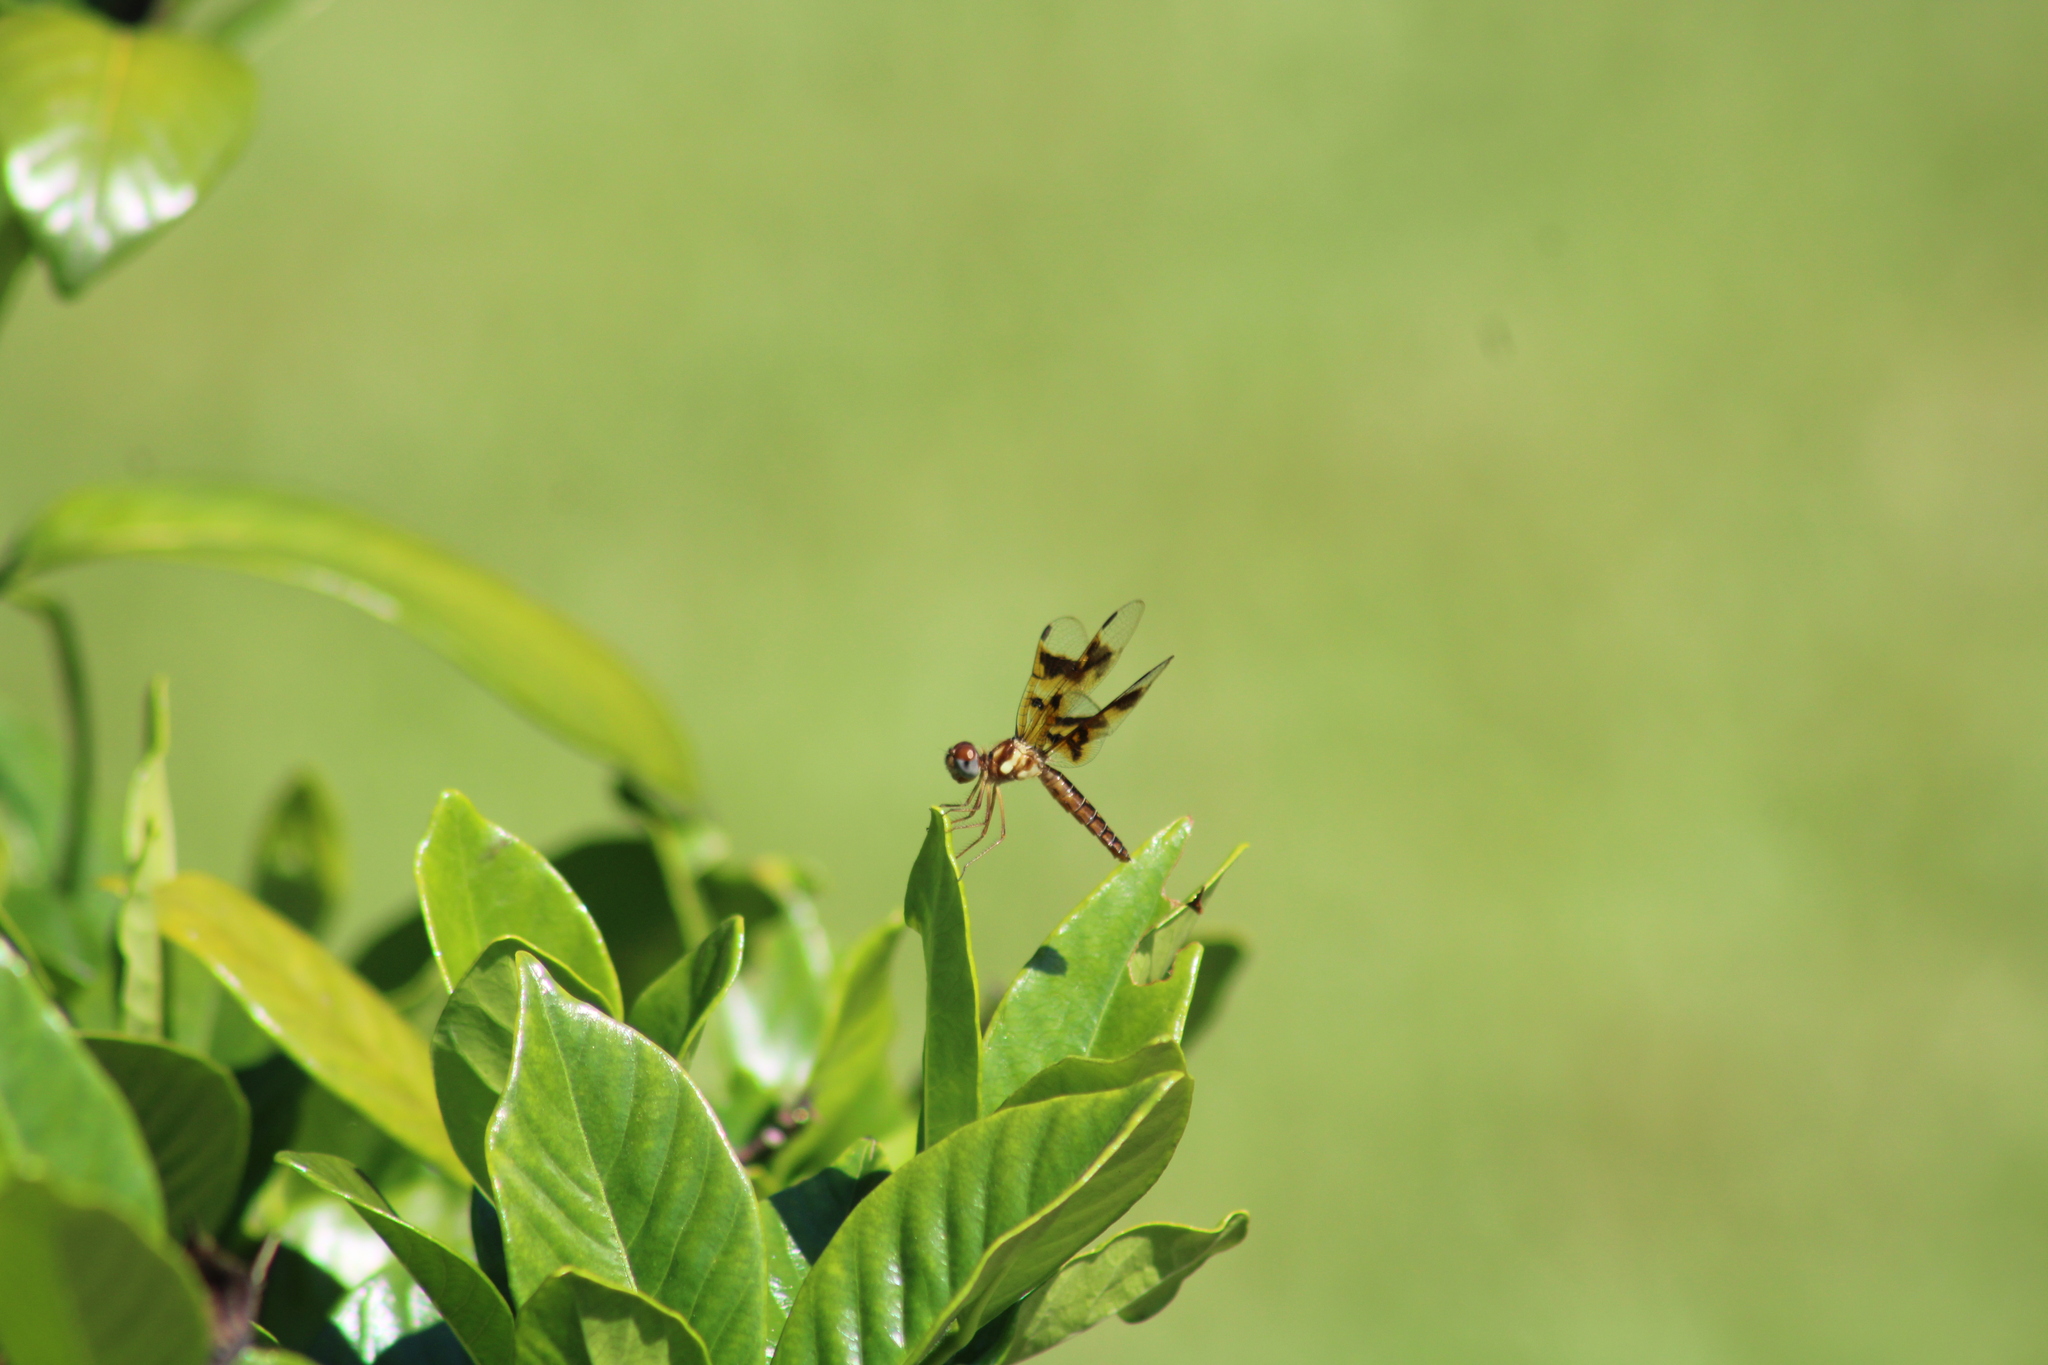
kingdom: Animalia
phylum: Arthropoda
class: Insecta
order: Odonata
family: Libellulidae
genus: Perithemis
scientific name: Perithemis tenera
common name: Eastern amberwing
